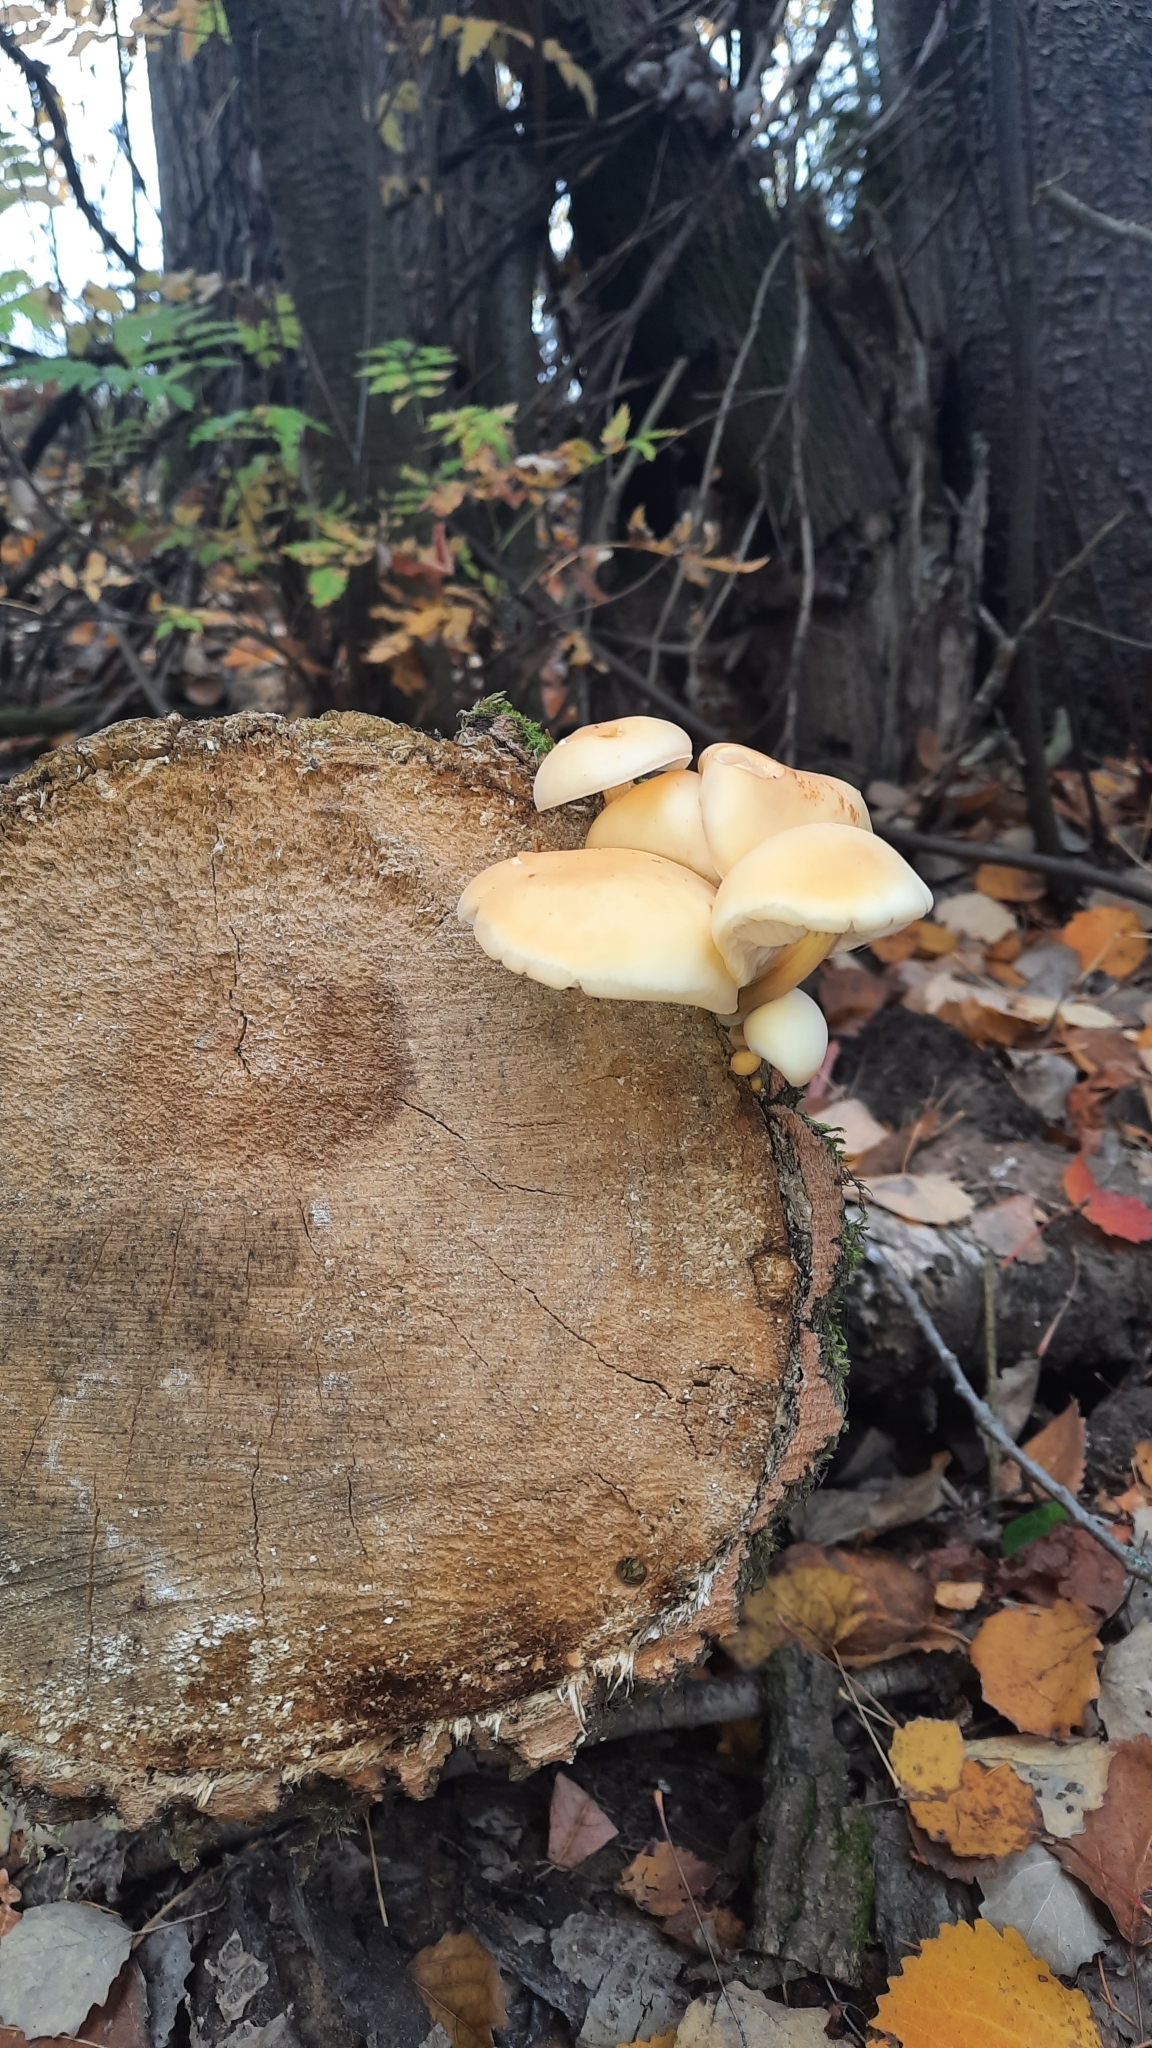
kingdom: Fungi
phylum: Basidiomycota
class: Agaricomycetes
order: Agaricales
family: Physalacriaceae
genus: Flammulina
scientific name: Flammulina
